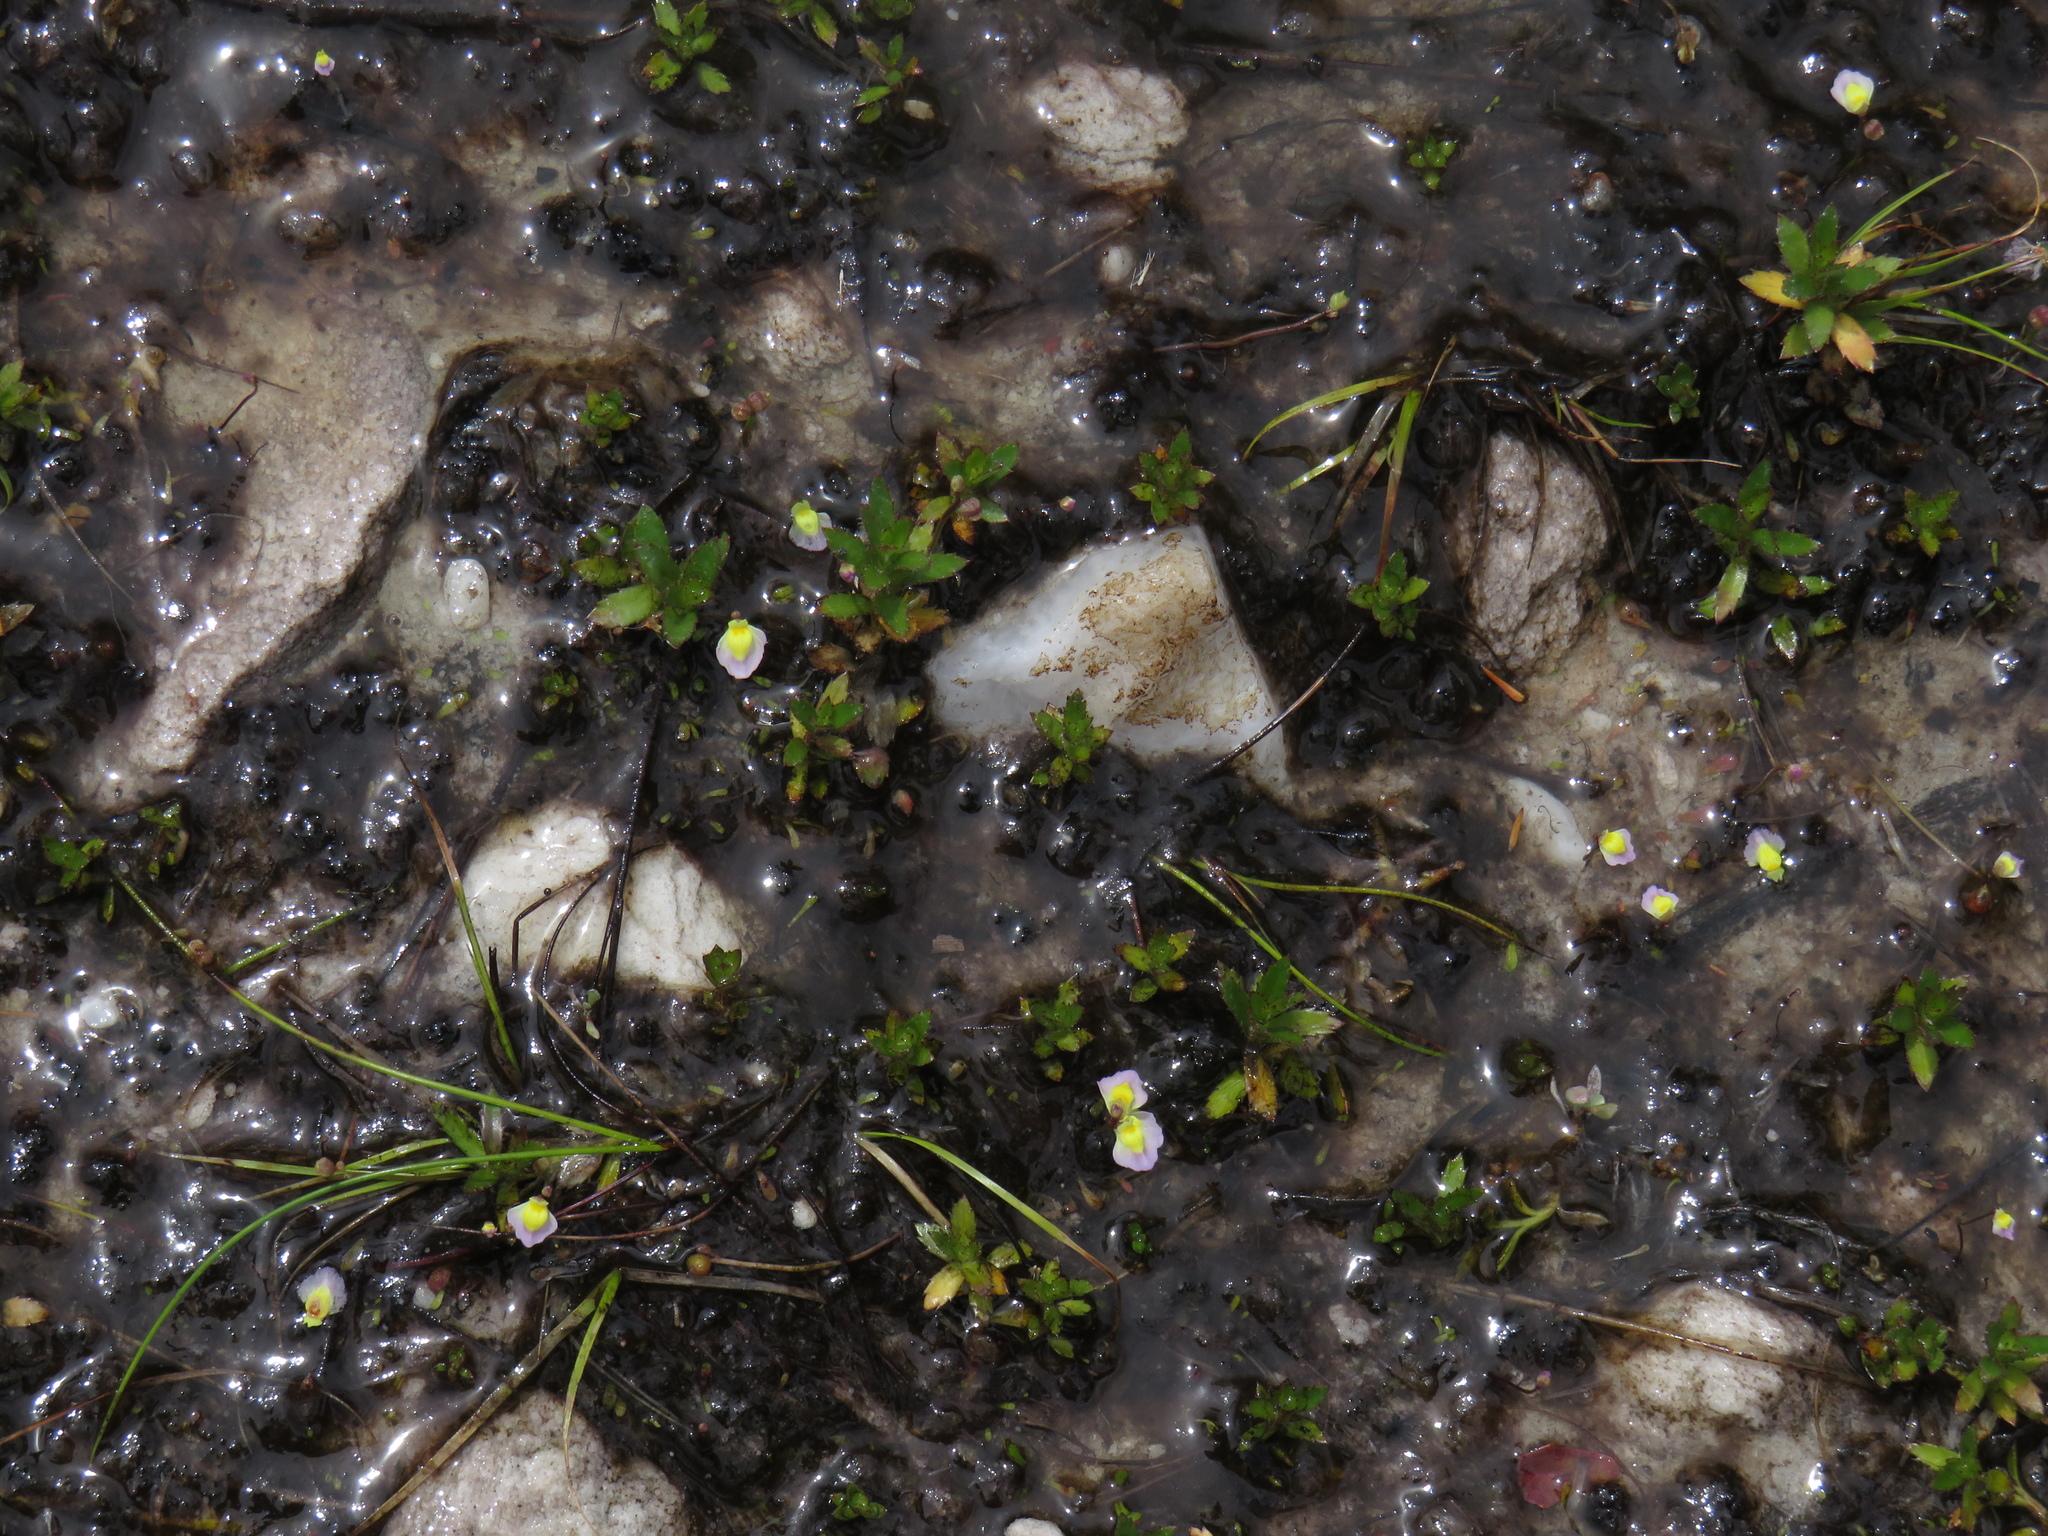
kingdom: Plantae
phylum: Tracheophyta
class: Magnoliopsida
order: Lamiales
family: Lentibulariaceae
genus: Utricularia
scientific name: Utricularia bisquamata
